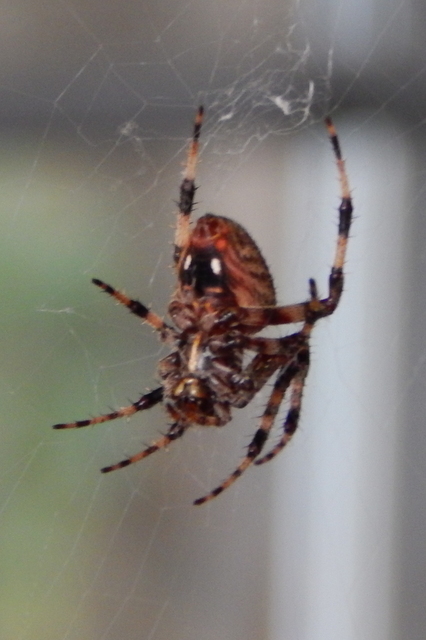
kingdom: Animalia
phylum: Arthropoda
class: Arachnida
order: Araneae
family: Araneidae
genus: Neoscona
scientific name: Neoscona crucifera
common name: Spotted orbweaver
